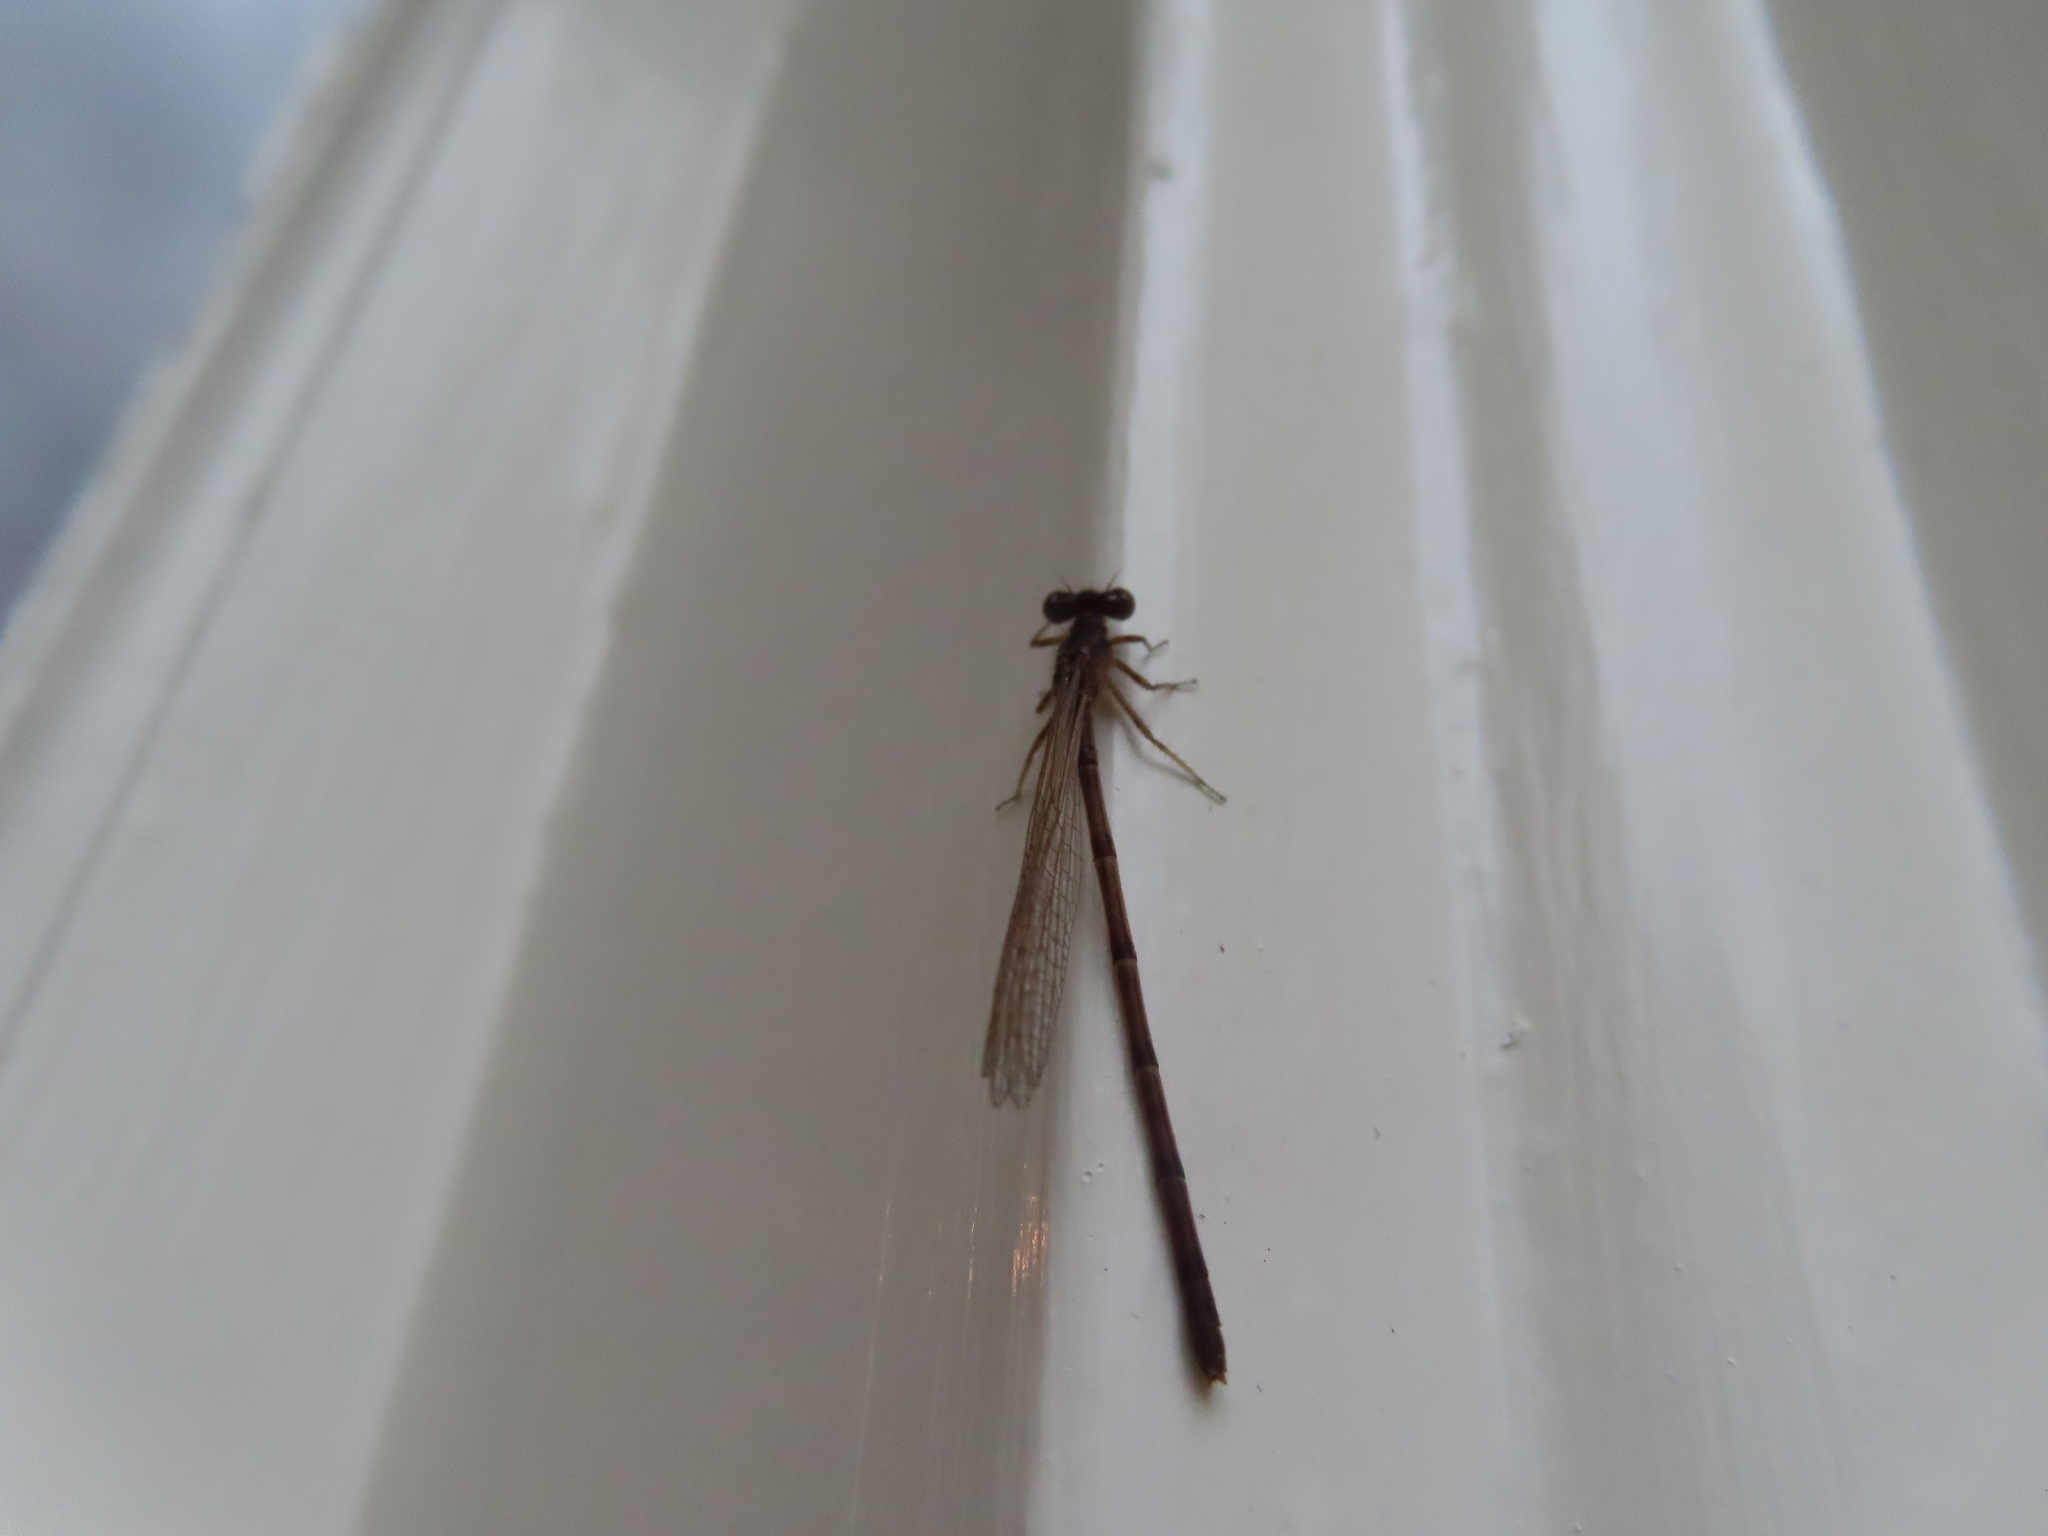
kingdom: Animalia
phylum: Arthropoda
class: Insecta
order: Odonata
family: Coenagrionidae
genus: Ischnura
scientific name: Ischnura posita
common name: Fragile forktail
